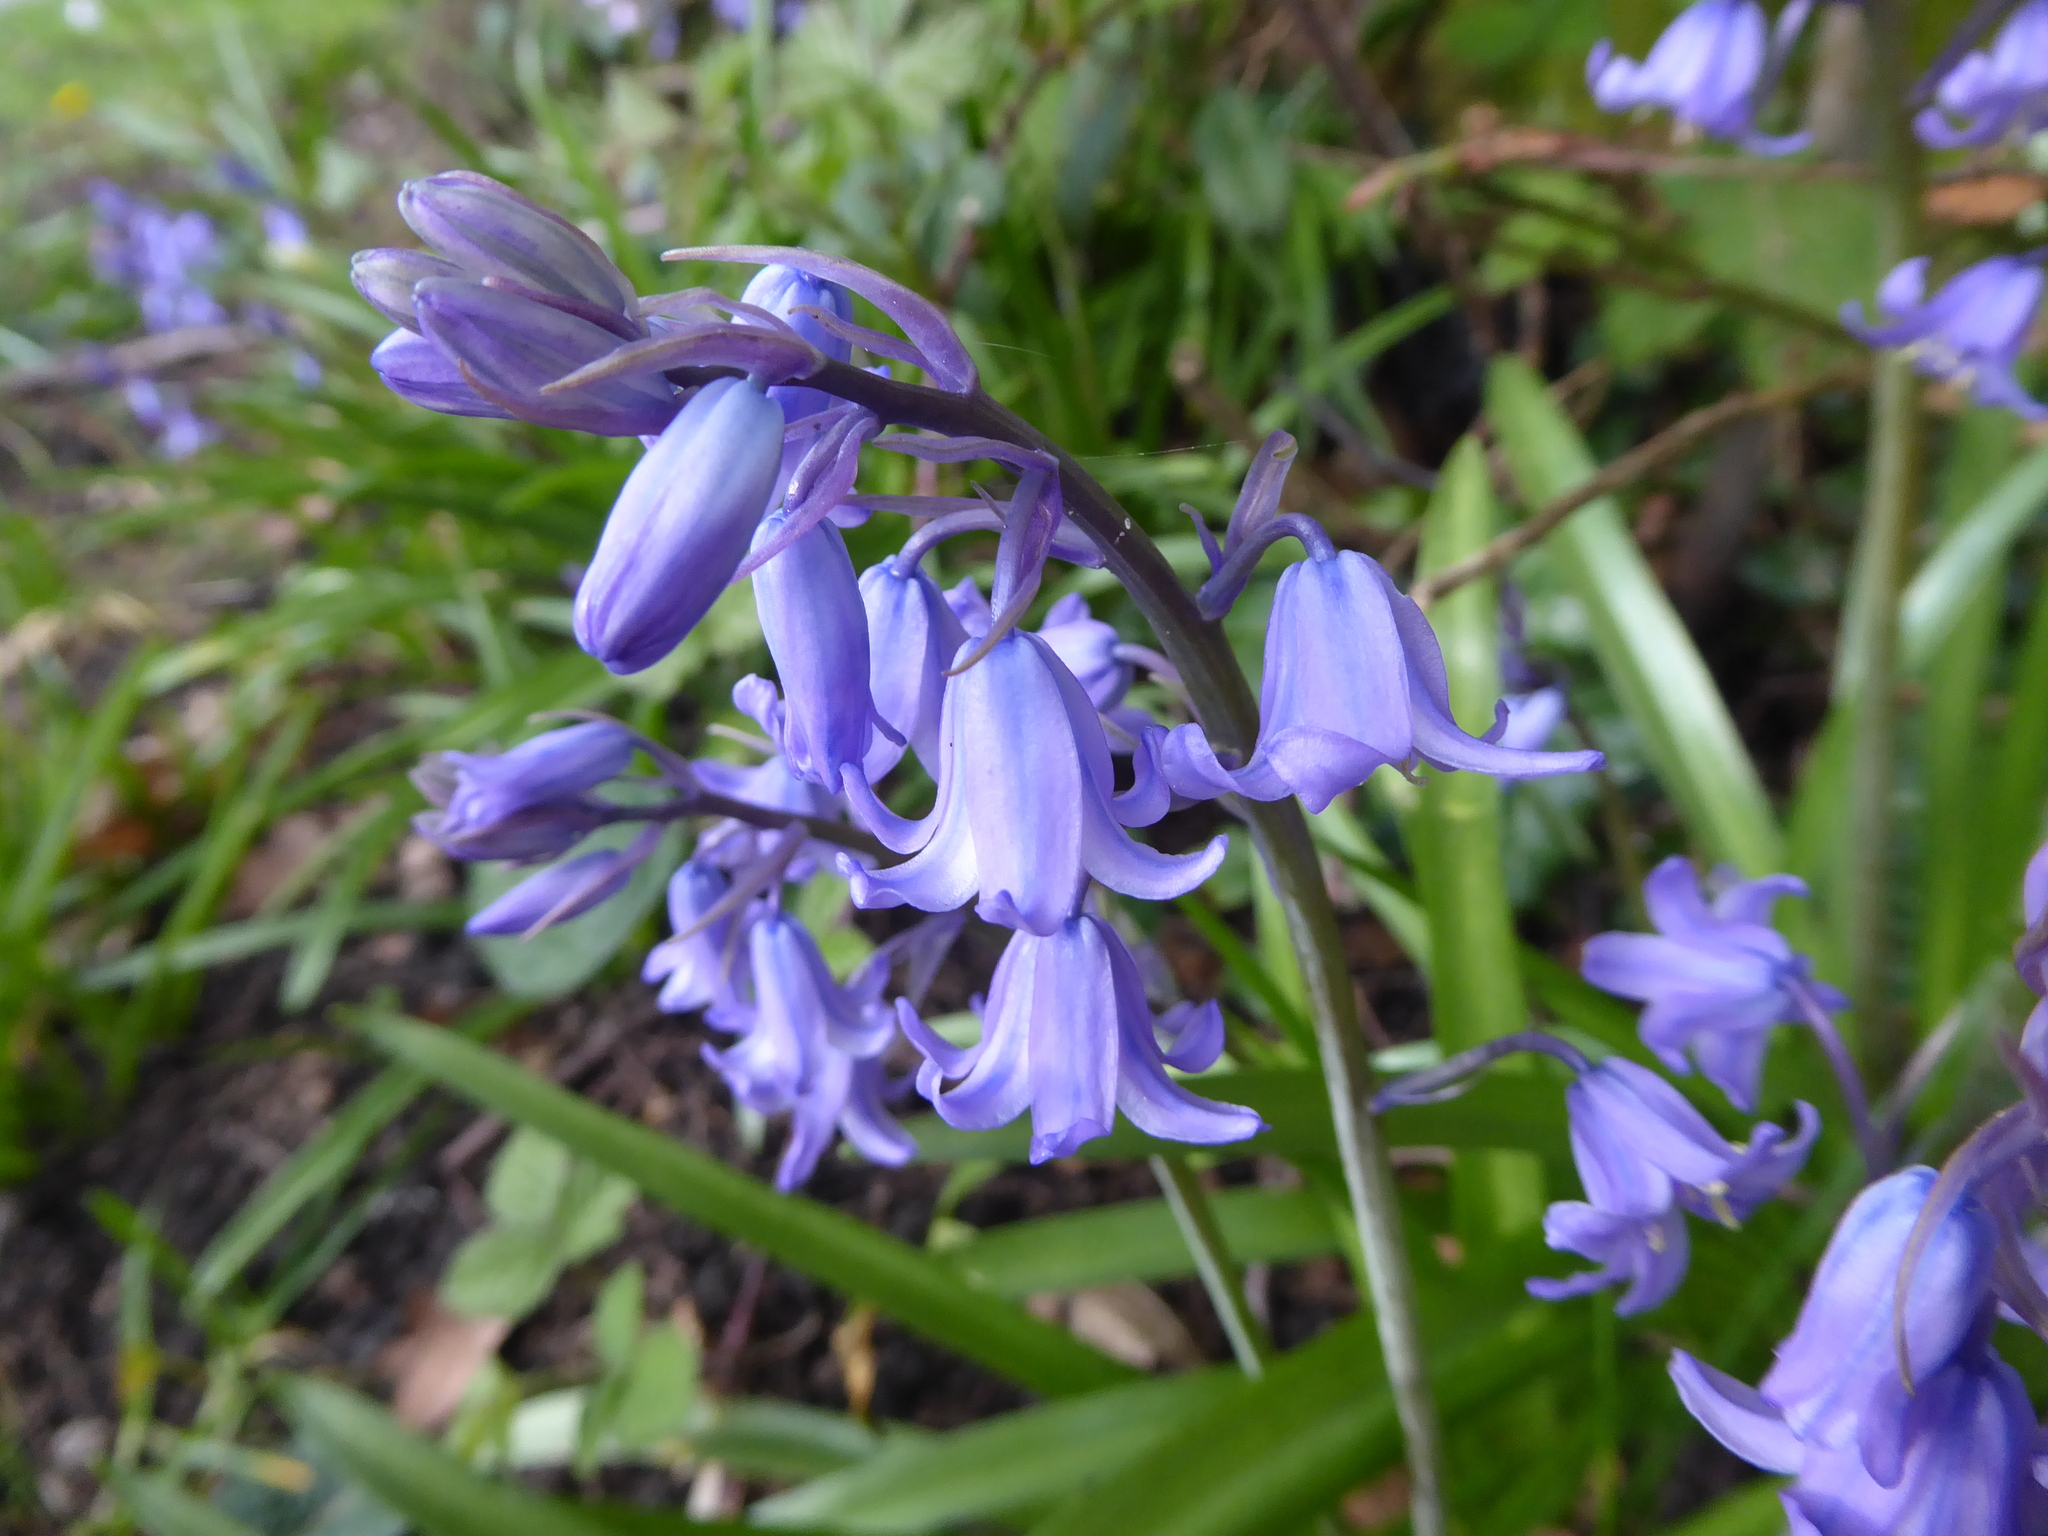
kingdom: Plantae
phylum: Tracheophyta
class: Liliopsida
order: Asparagales
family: Asparagaceae
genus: Hyacinthoides
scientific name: Hyacinthoides massartiana
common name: Hyacinthoides
